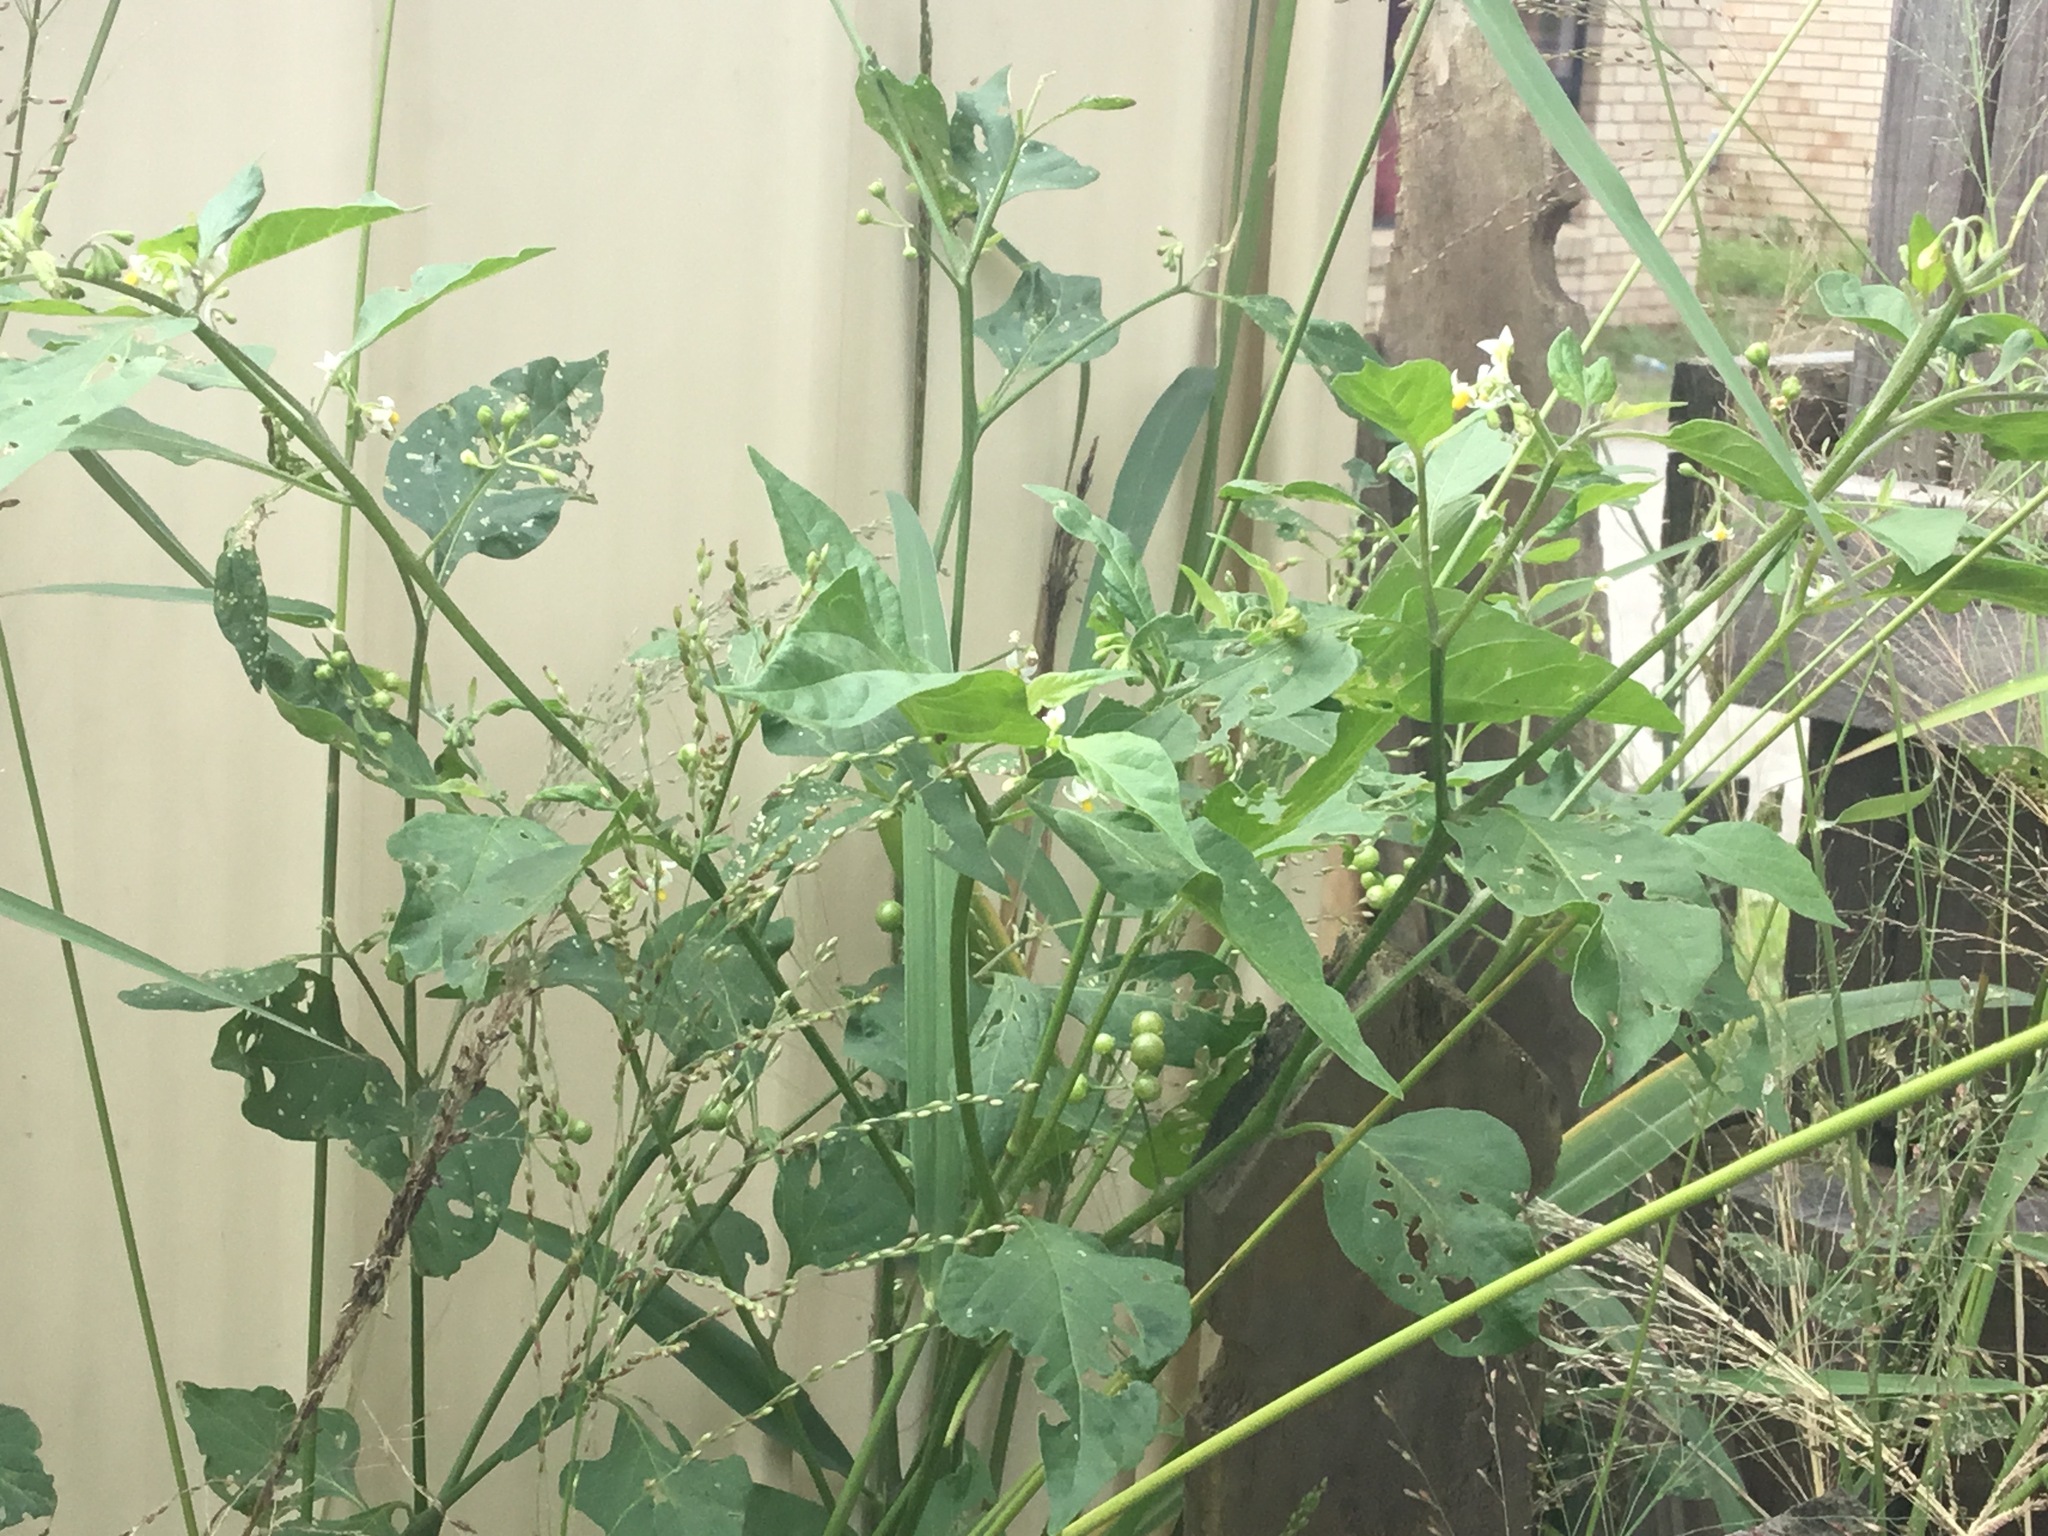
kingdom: Plantae
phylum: Tracheophyta
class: Magnoliopsida
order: Solanales
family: Solanaceae
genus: Solanum
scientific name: Solanum americanum
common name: American black nightshade
